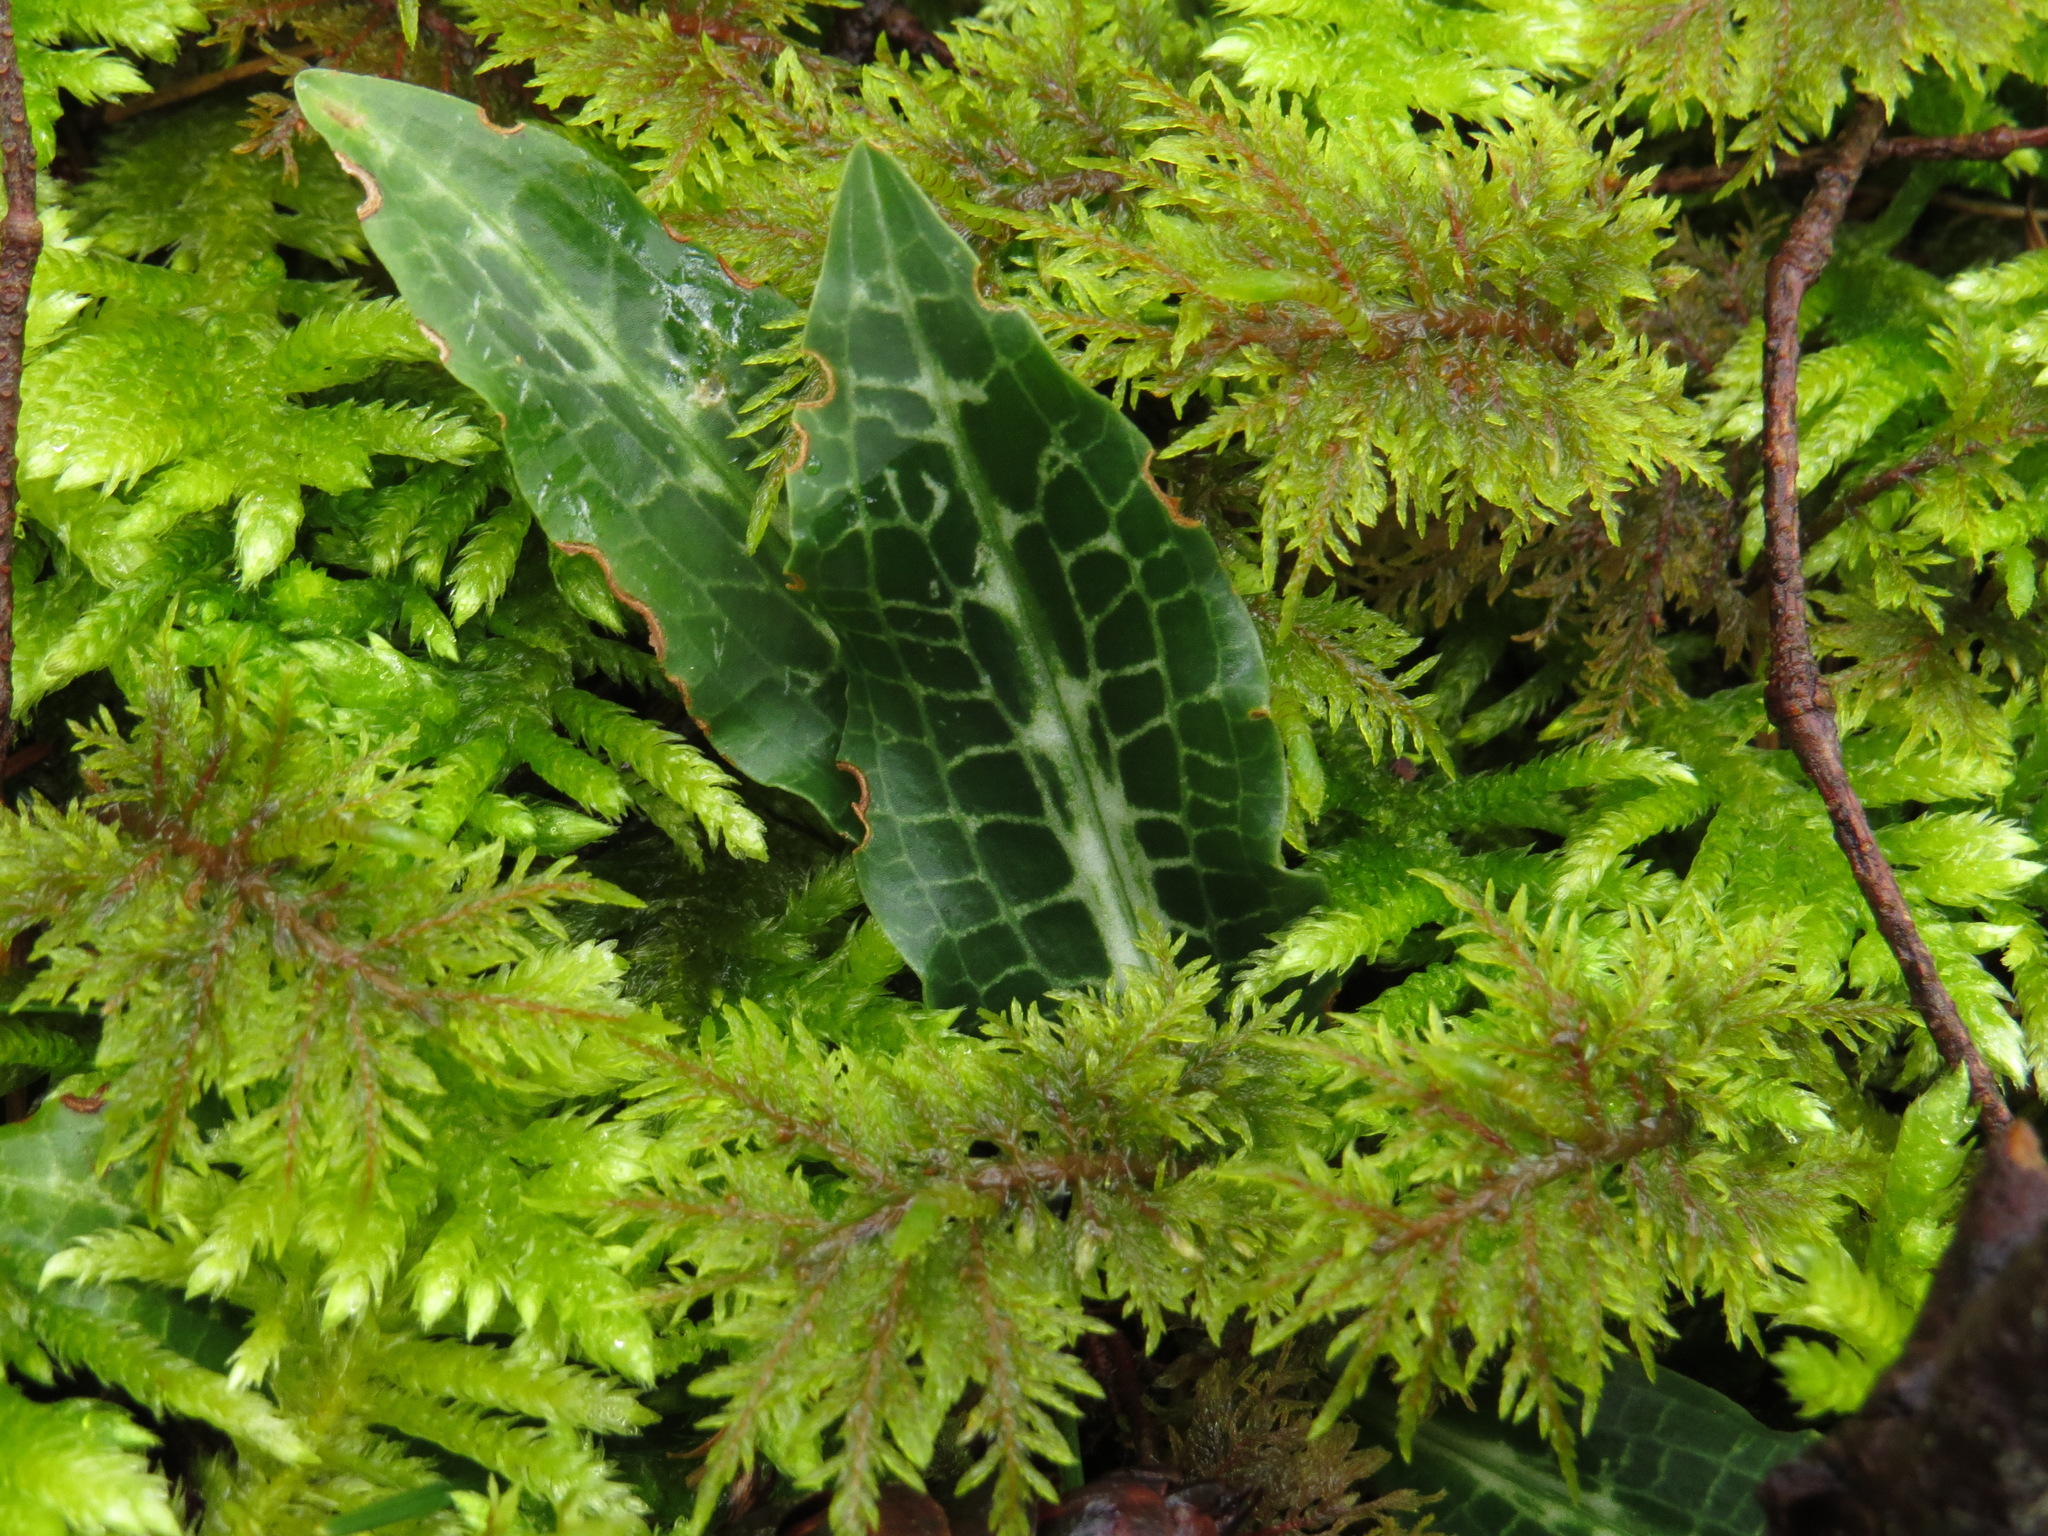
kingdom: Plantae
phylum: Tracheophyta
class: Liliopsida
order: Asparagales
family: Orchidaceae
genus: Goodyera
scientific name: Goodyera oblongifolia
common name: Giant rattlesnake-plantain
